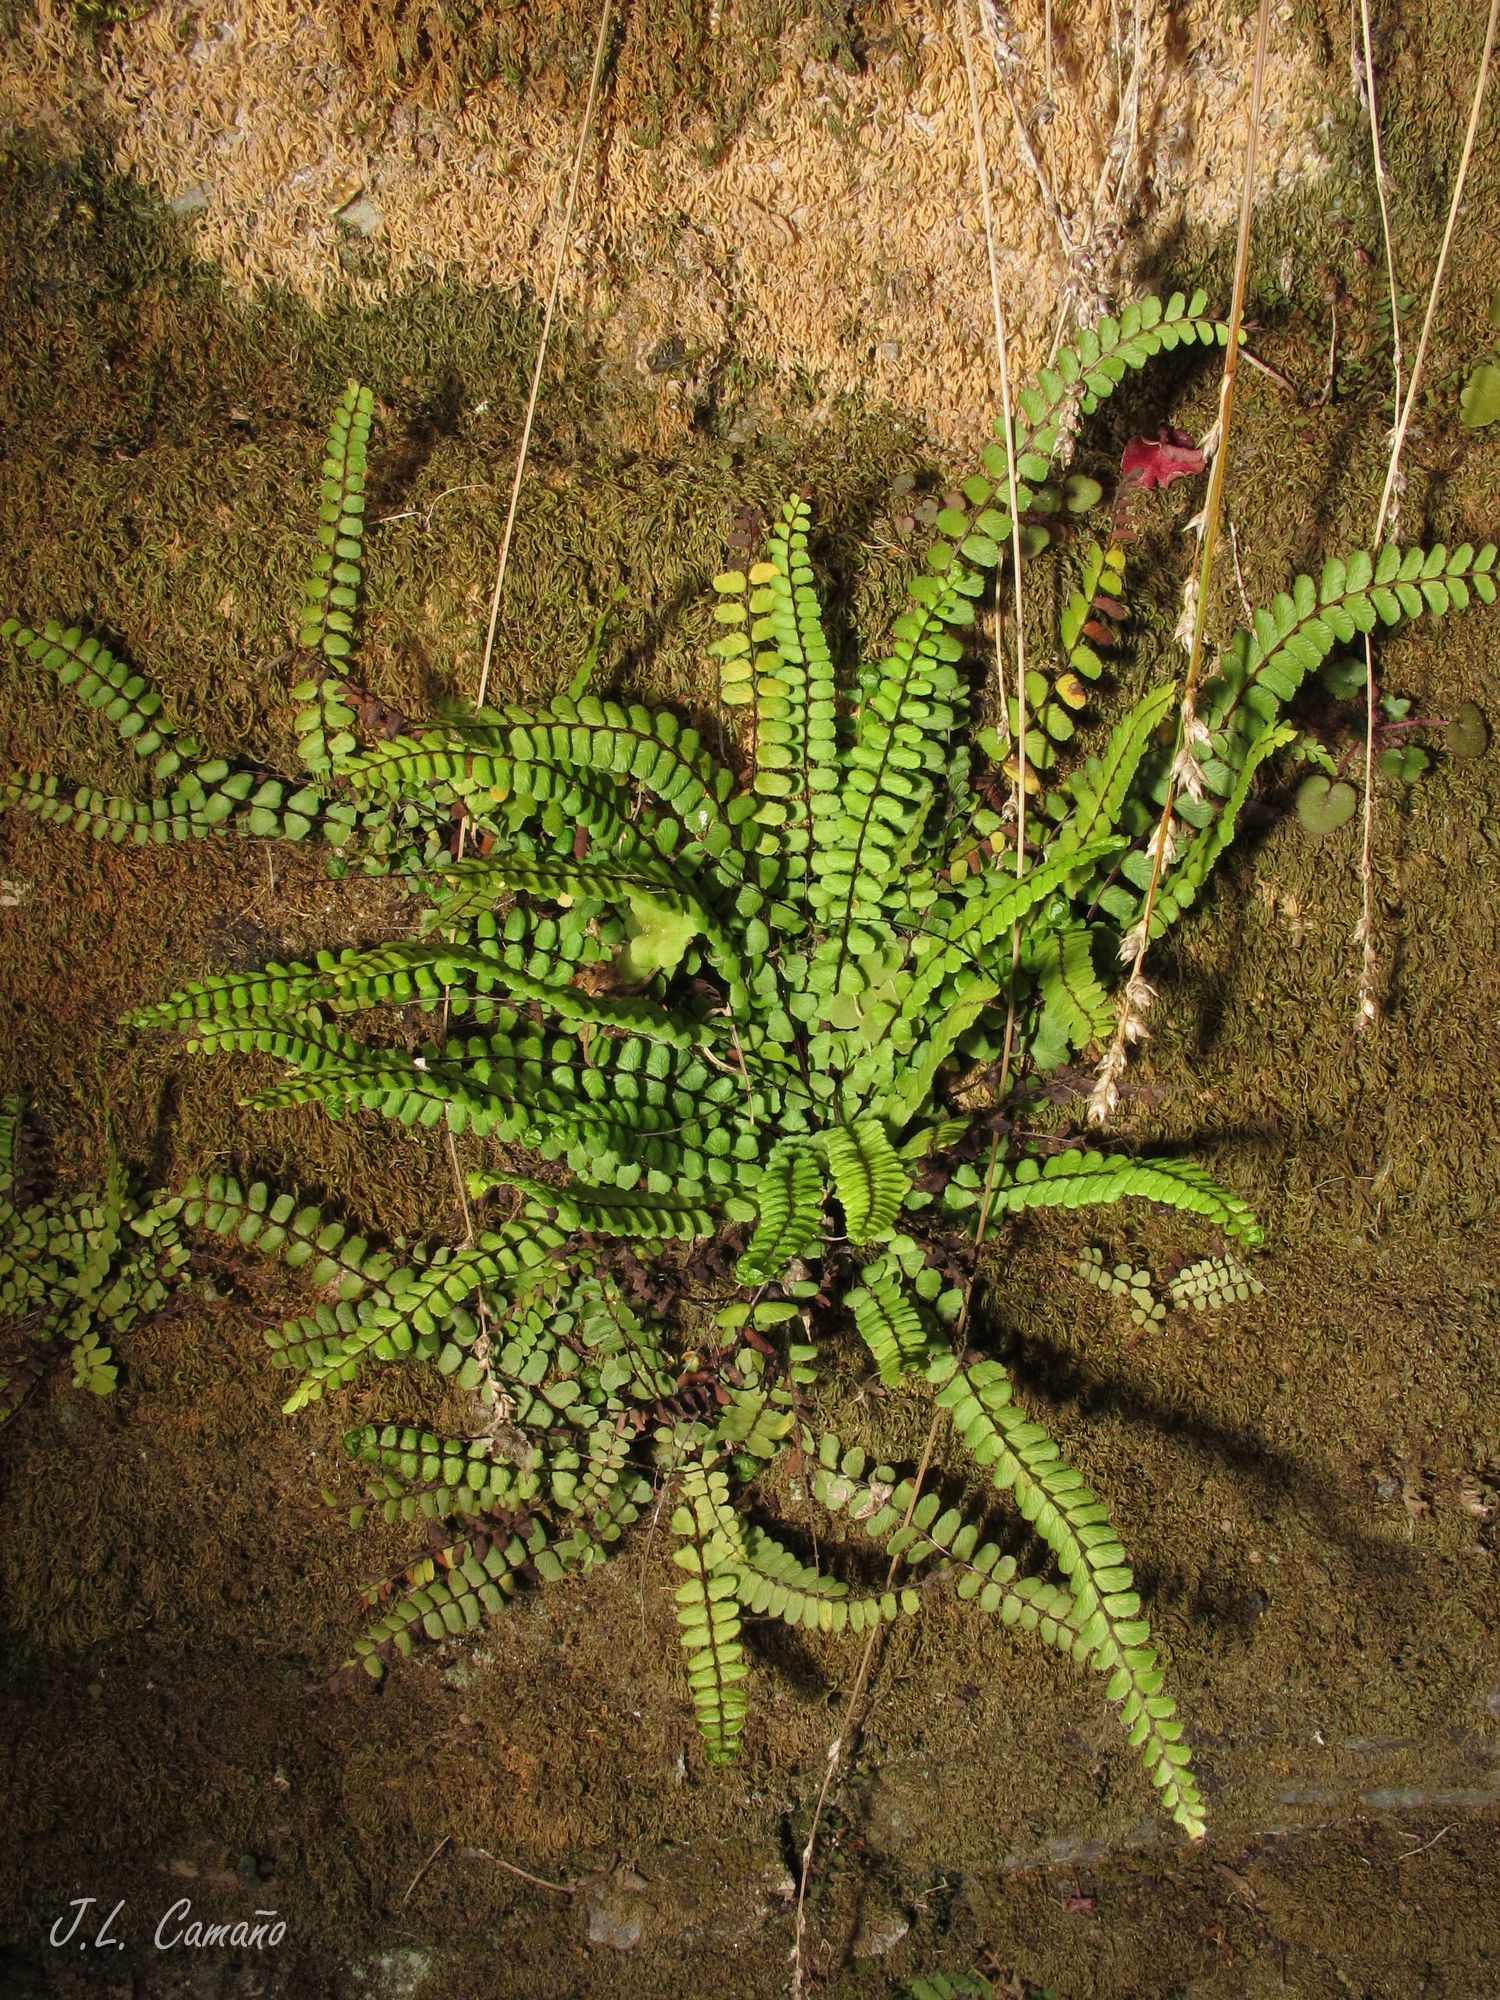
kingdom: Plantae
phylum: Tracheophyta
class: Polypodiopsida
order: Polypodiales
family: Aspleniaceae
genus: Asplenium
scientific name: Asplenium trichomanes
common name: Maidenhair spleenwort
